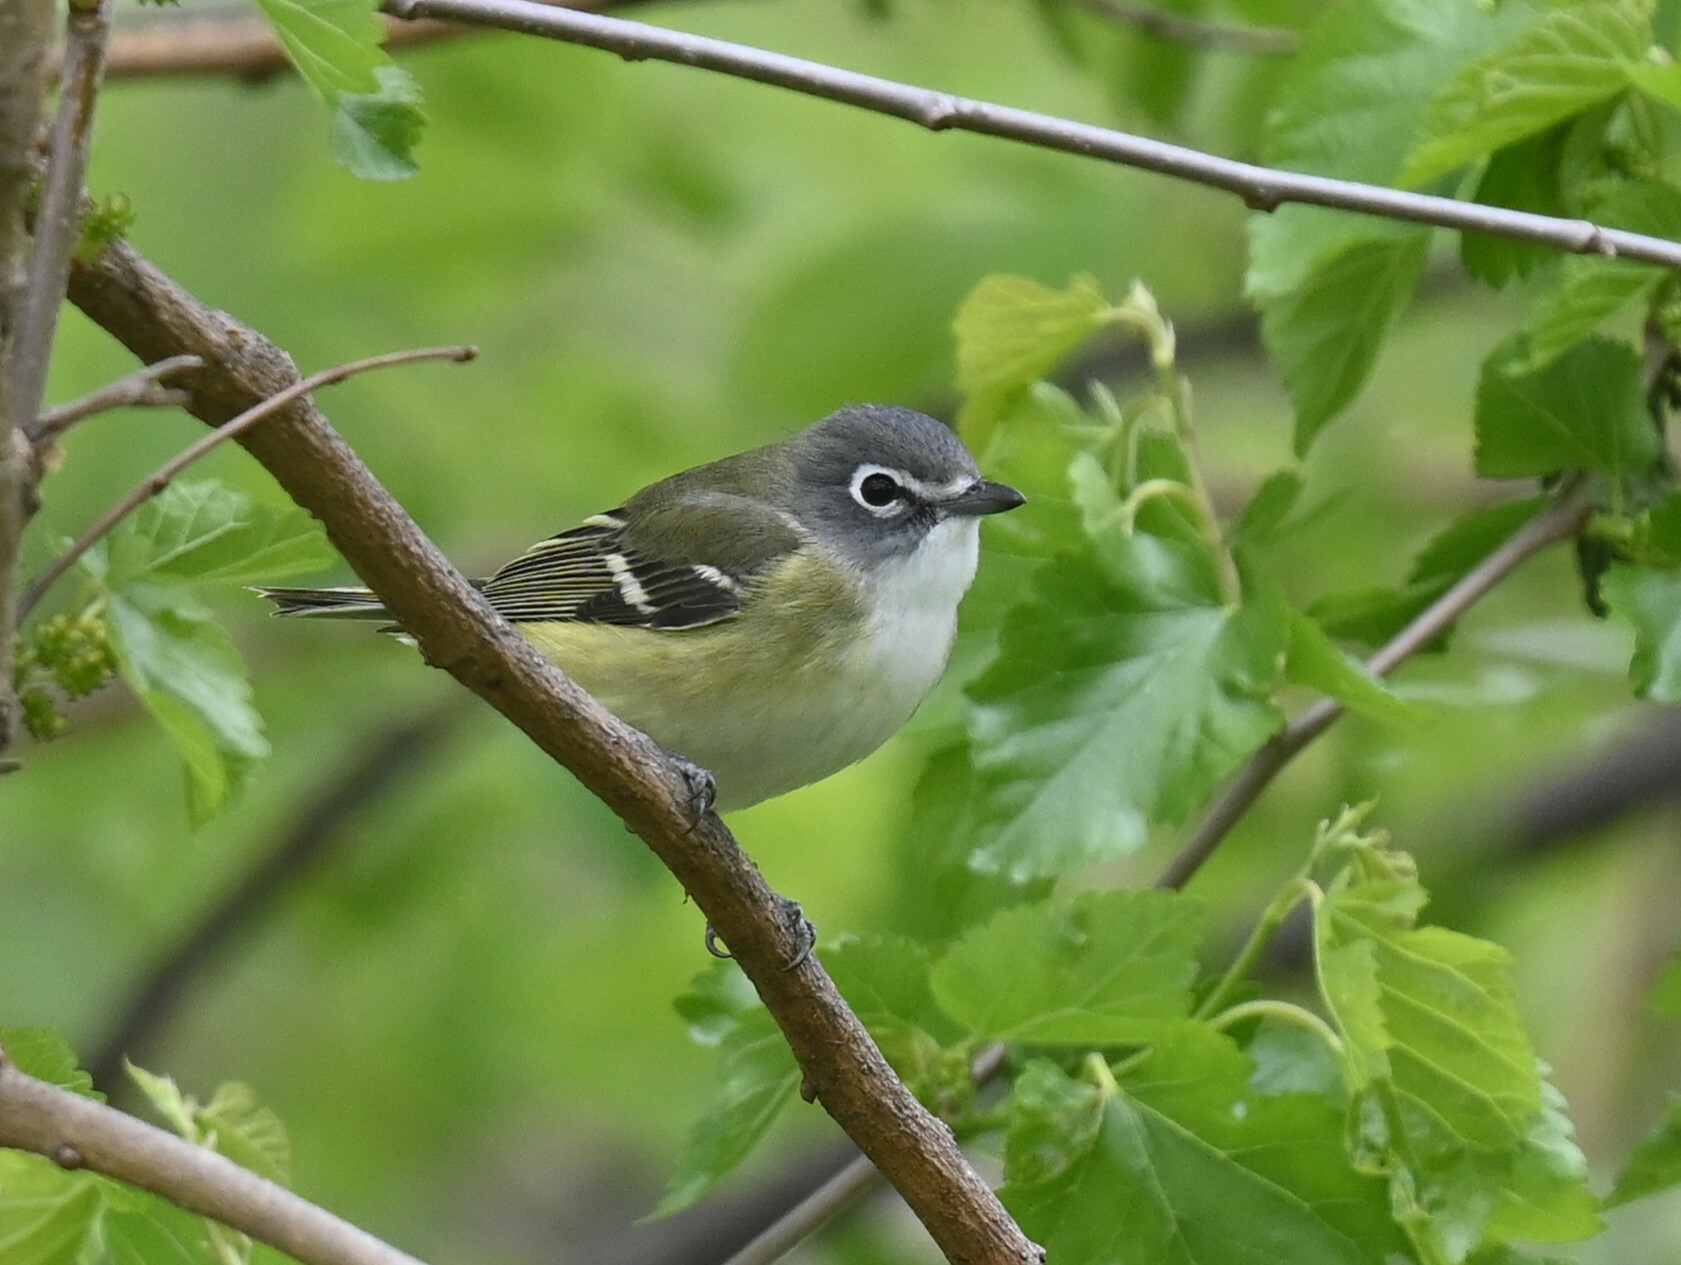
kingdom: Animalia
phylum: Chordata
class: Aves
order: Passeriformes
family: Vireonidae
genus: Vireo
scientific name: Vireo solitarius
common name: Blue-headed vireo
